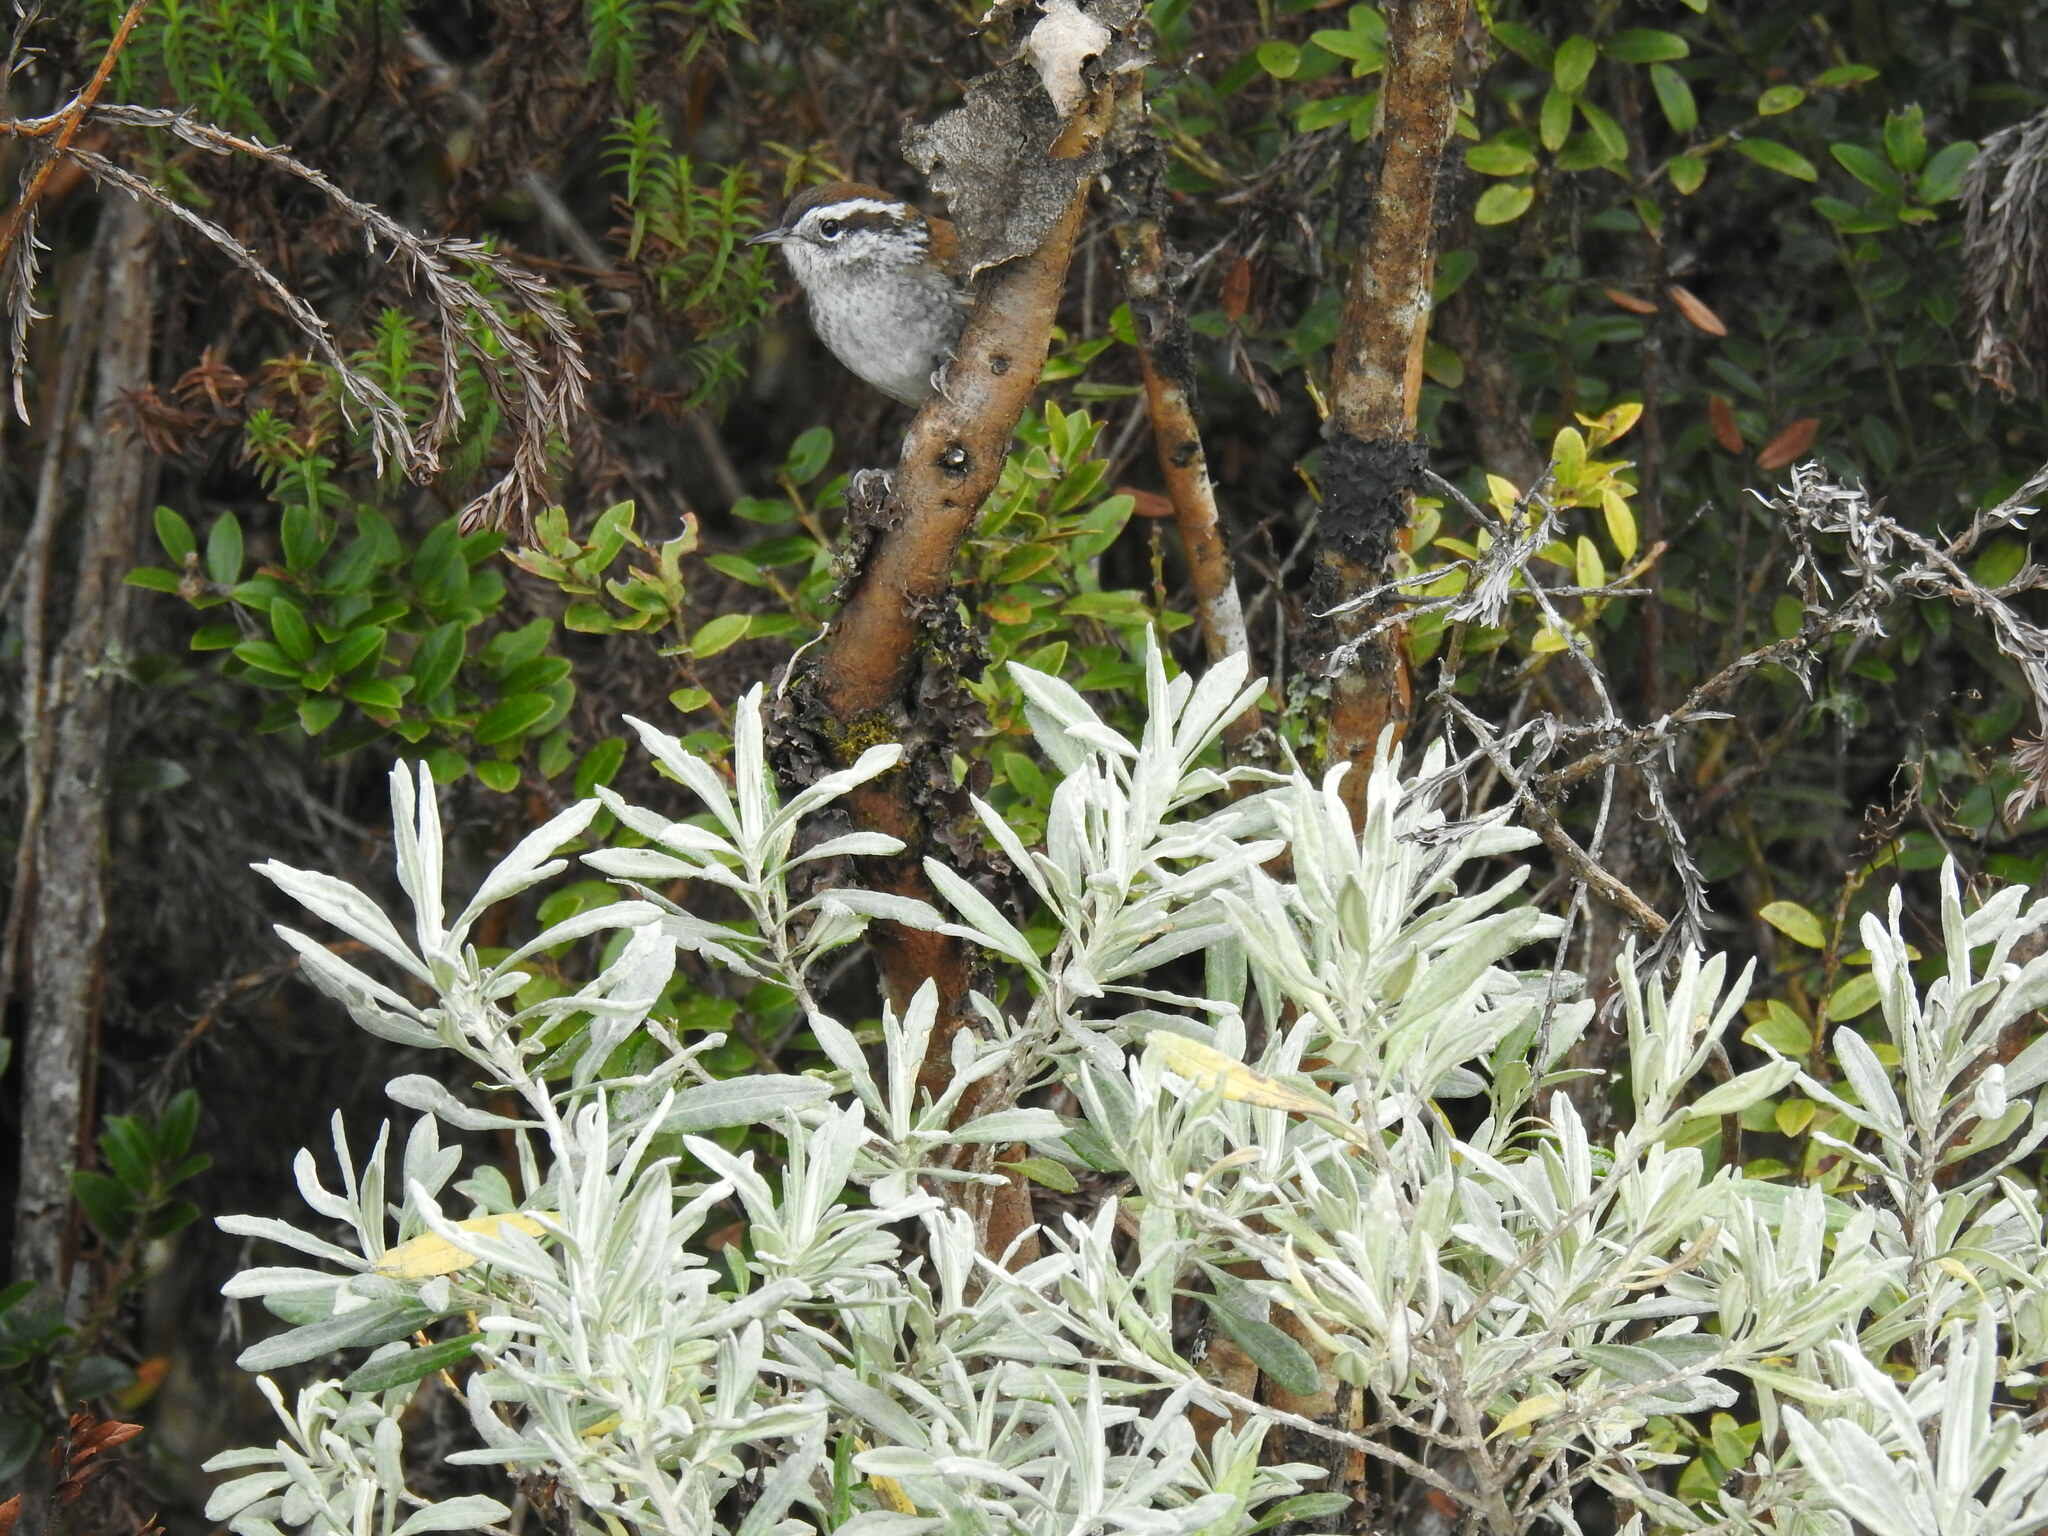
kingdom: Animalia
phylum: Chordata
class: Aves
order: Passeriformes
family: Troglodytidae
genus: Thryorchilus
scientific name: Thryorchilus browni
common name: Timberline wren
